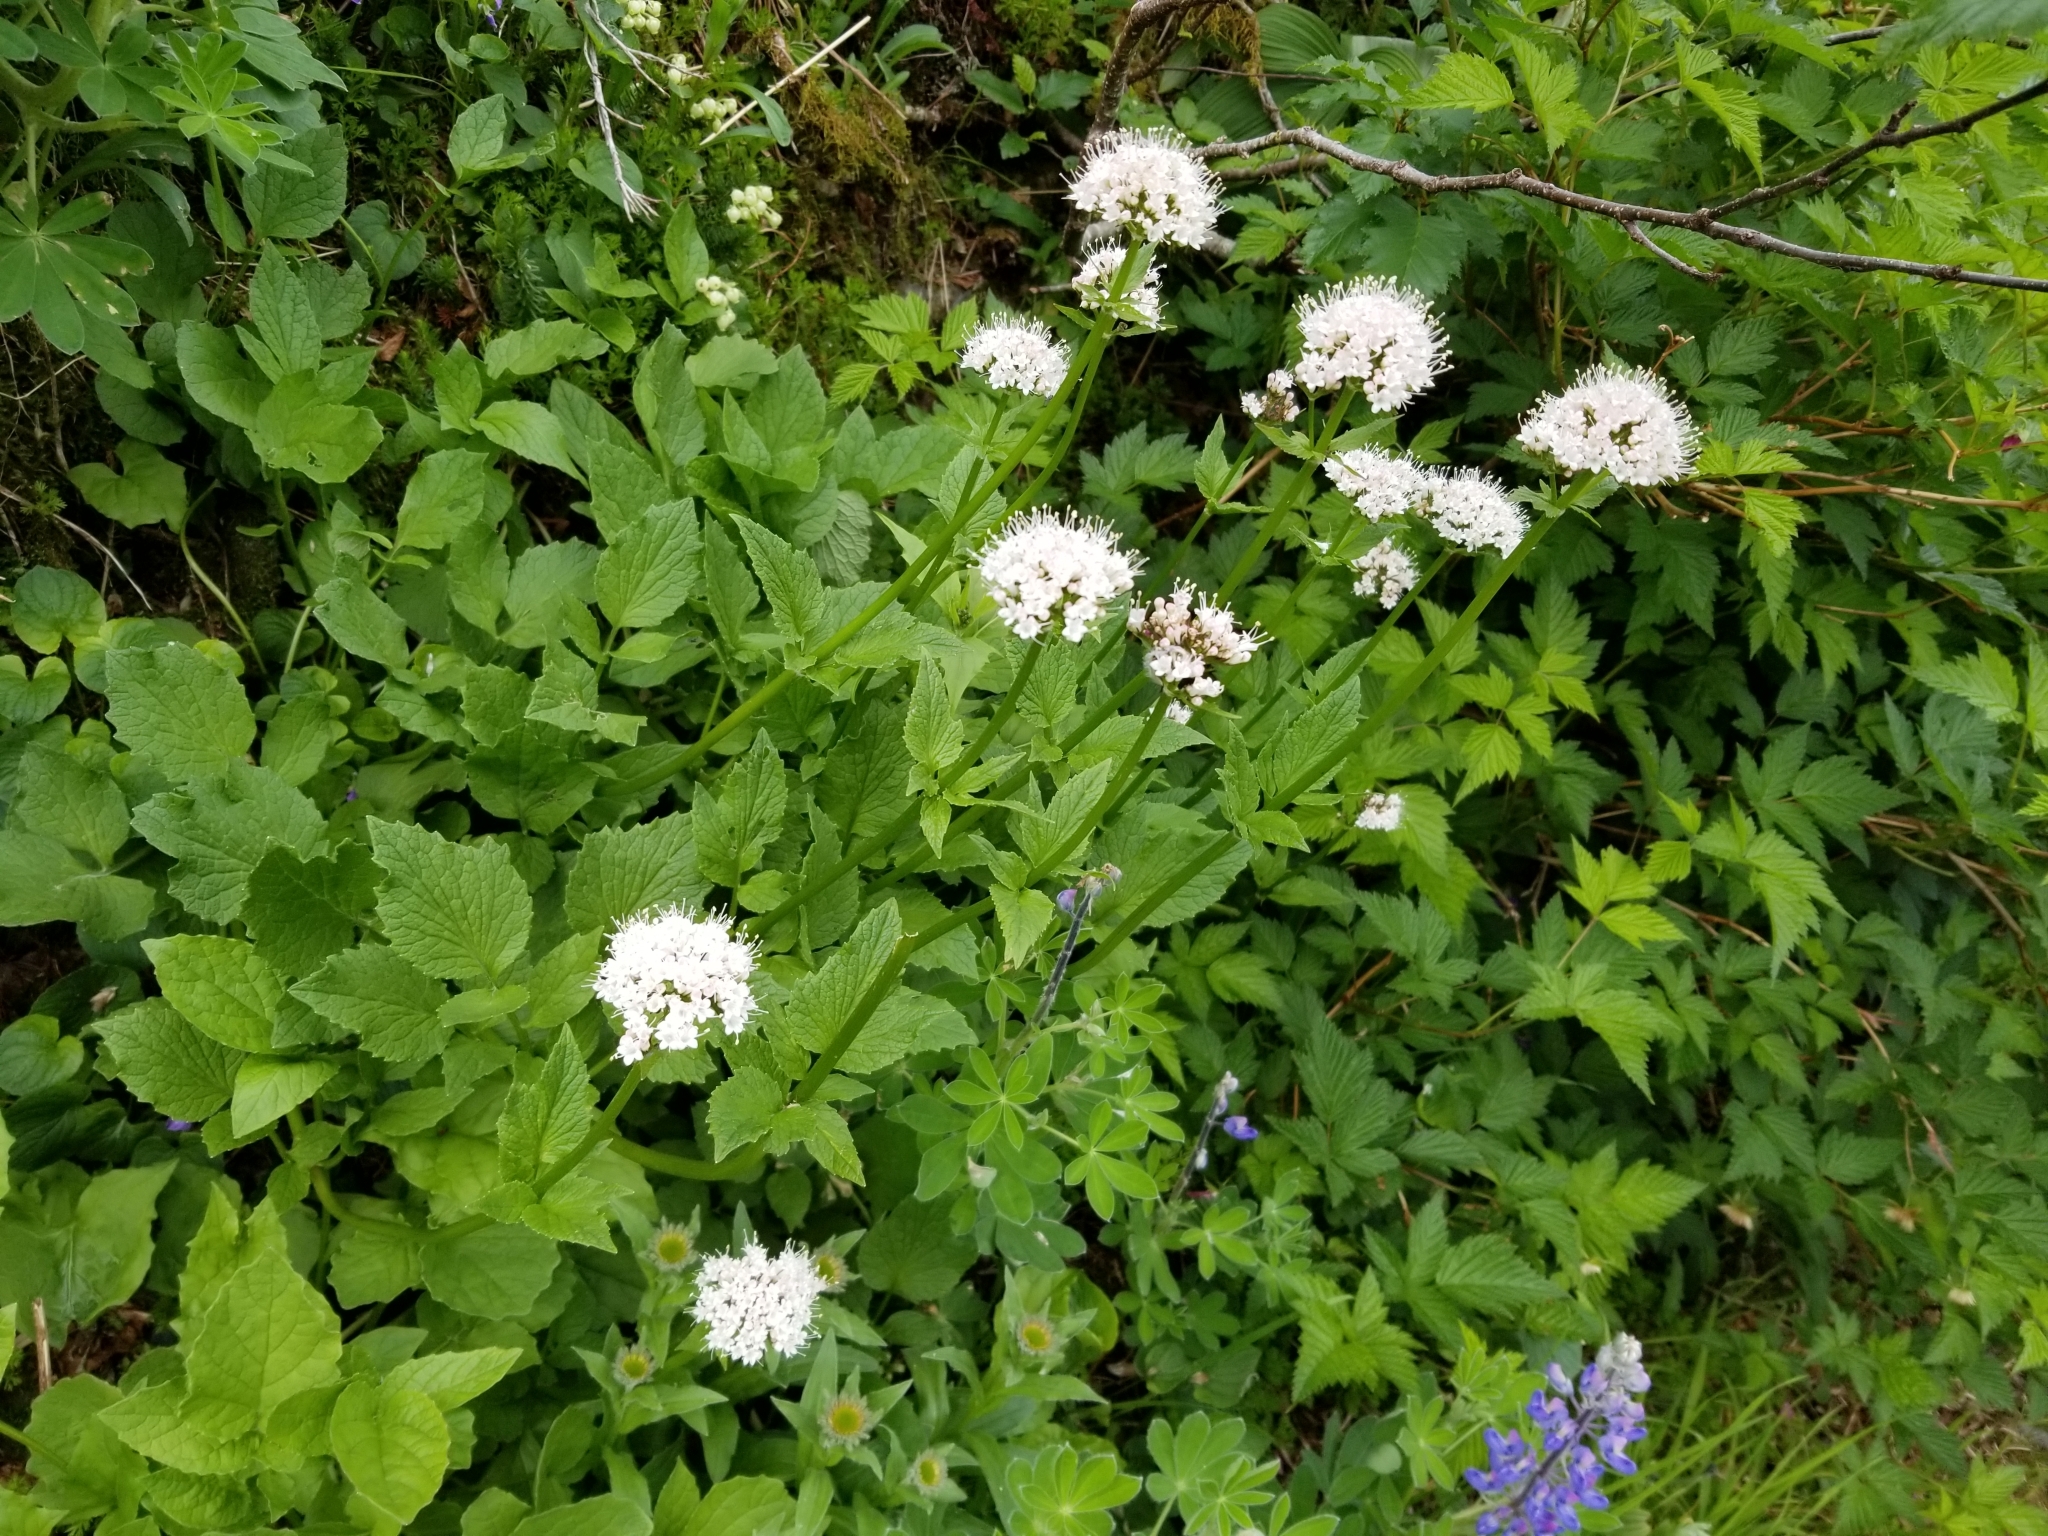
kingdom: Plantae
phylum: Tracheophyta
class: Magnoliopsida
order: Dipsacales
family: Caprifoliaceae
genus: Valeriana
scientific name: Valeriana sitchensis
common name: Pacific valerian
